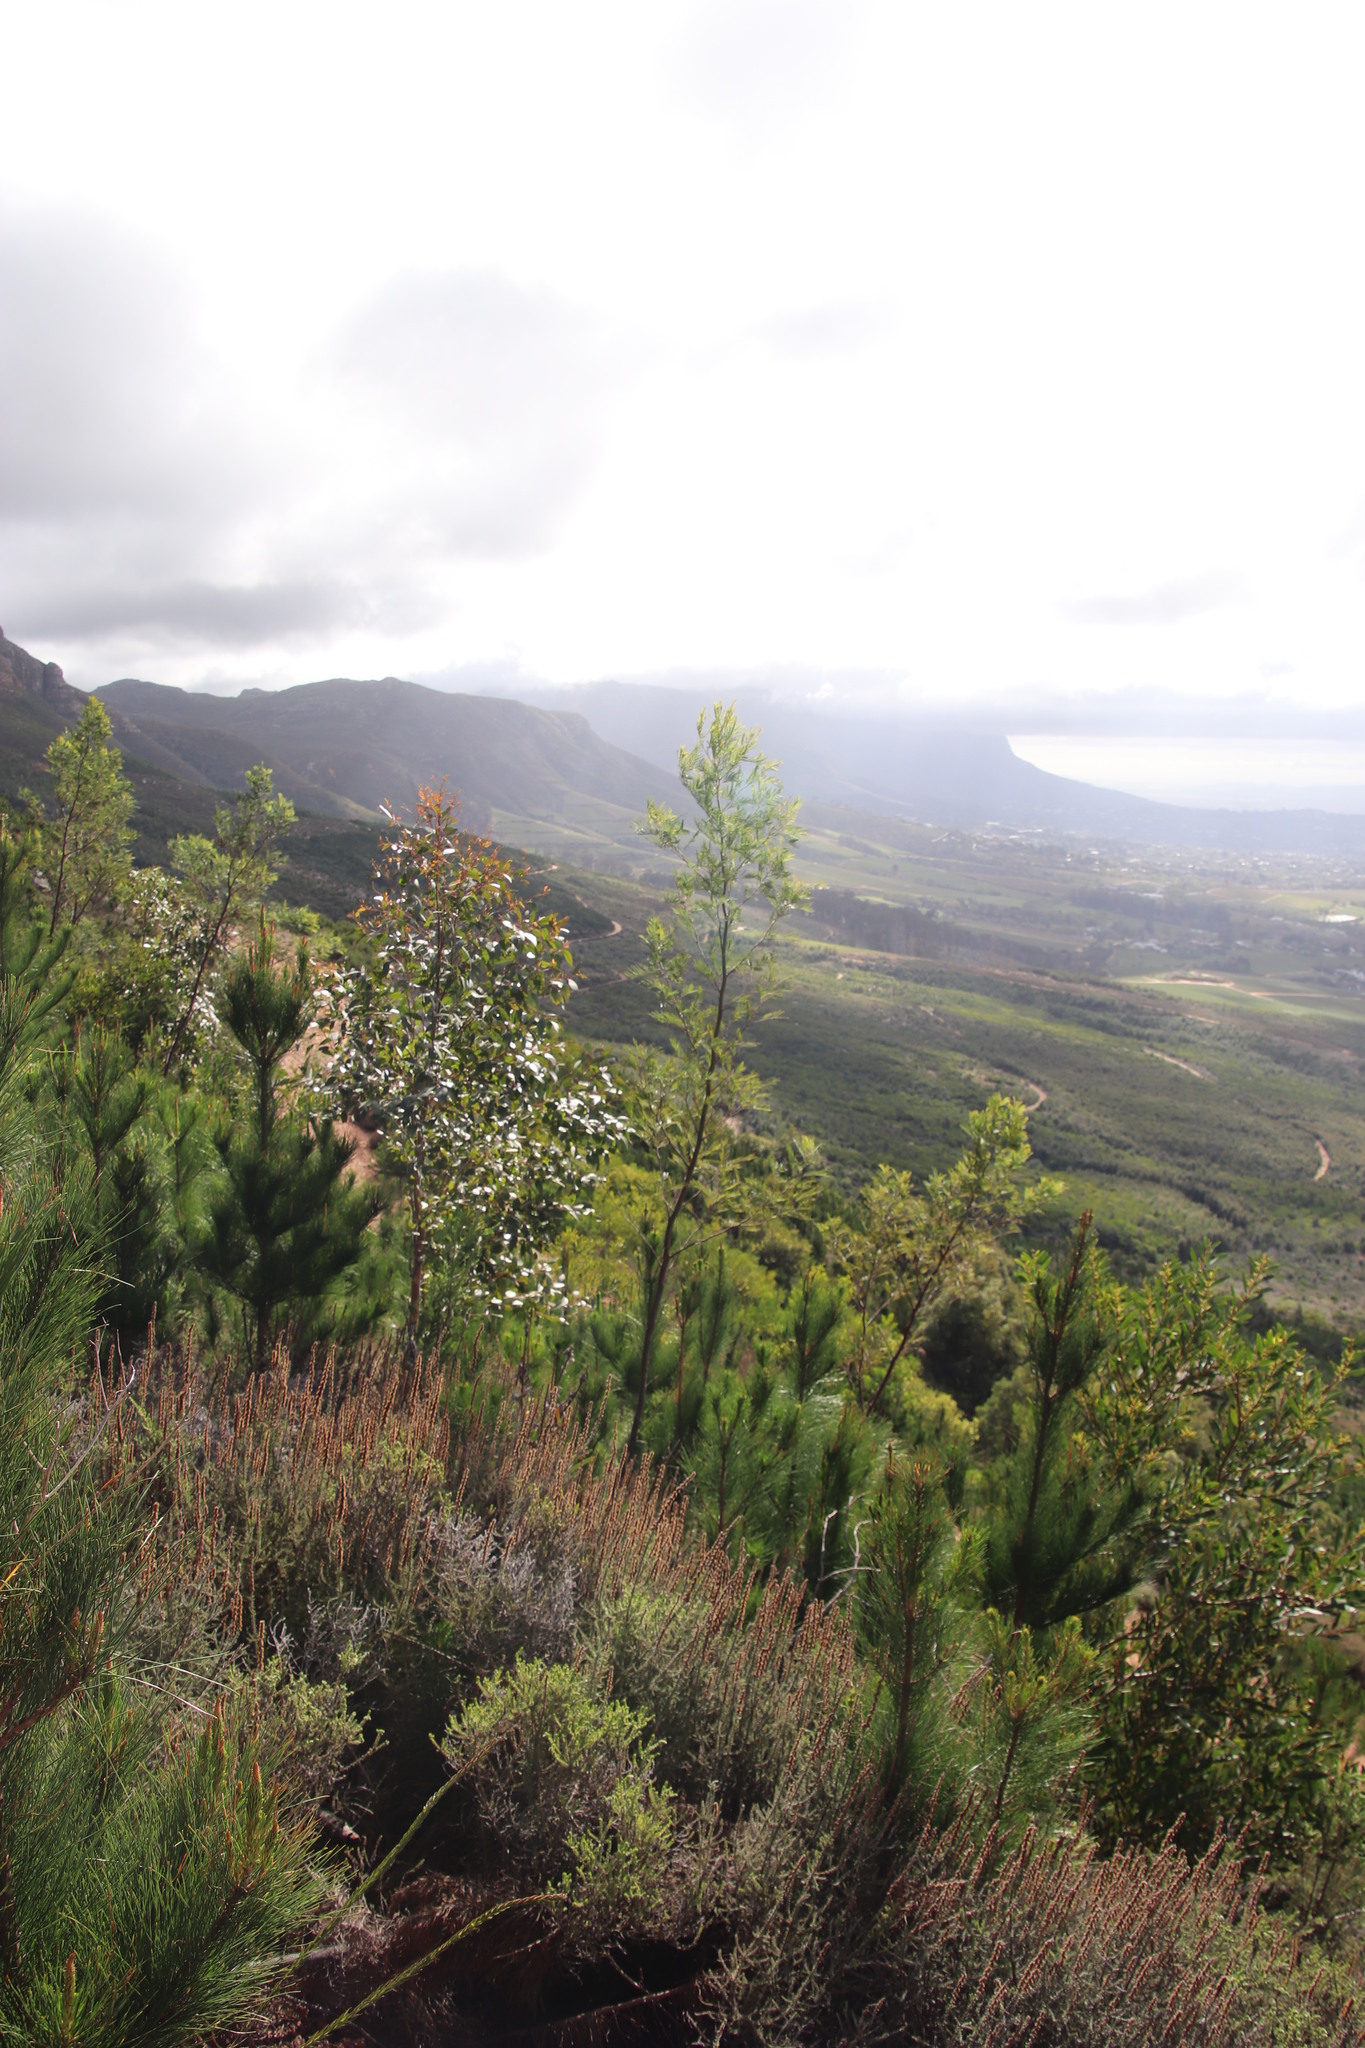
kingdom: Plantae
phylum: Tracheophyta
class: Magnoliopsida
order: Asterales
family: Asteraceae
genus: Seriphium
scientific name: Seriphium cinereum
